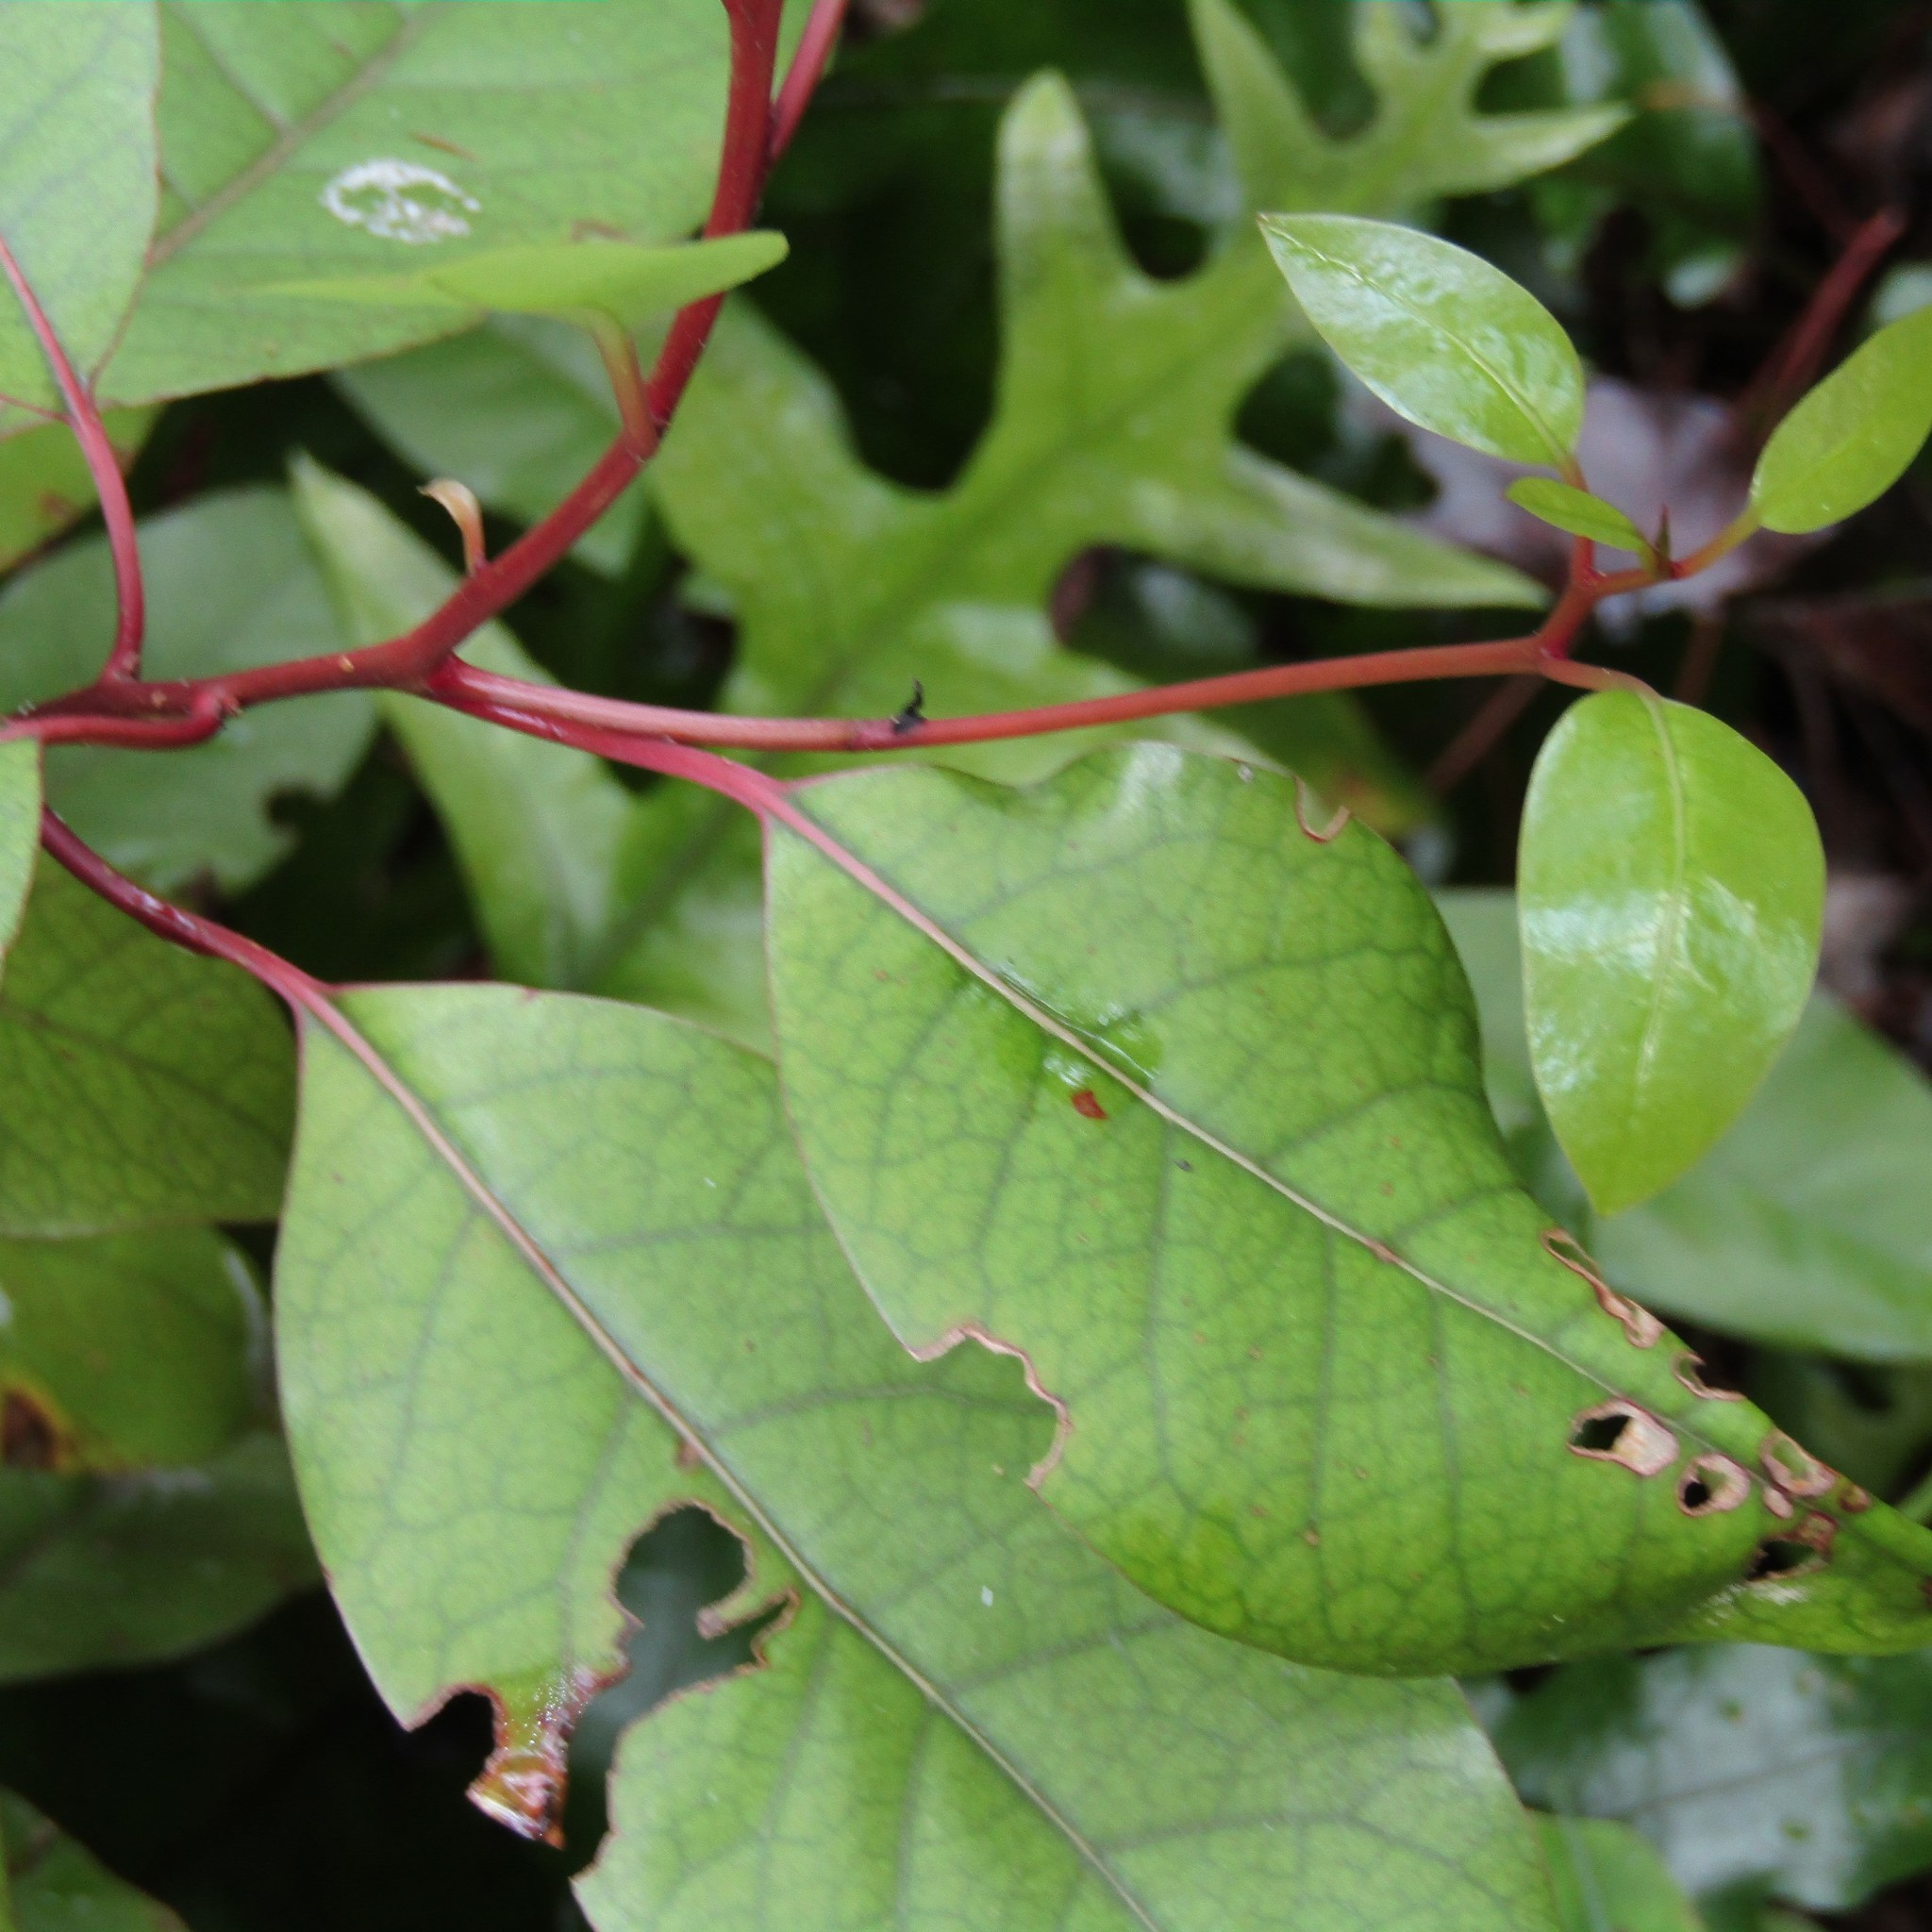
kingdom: Plantae
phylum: Tracheophyta
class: Magnoliopsida
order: Laurales
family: Lauraceae
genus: Litsea
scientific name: Litsea calicaris
